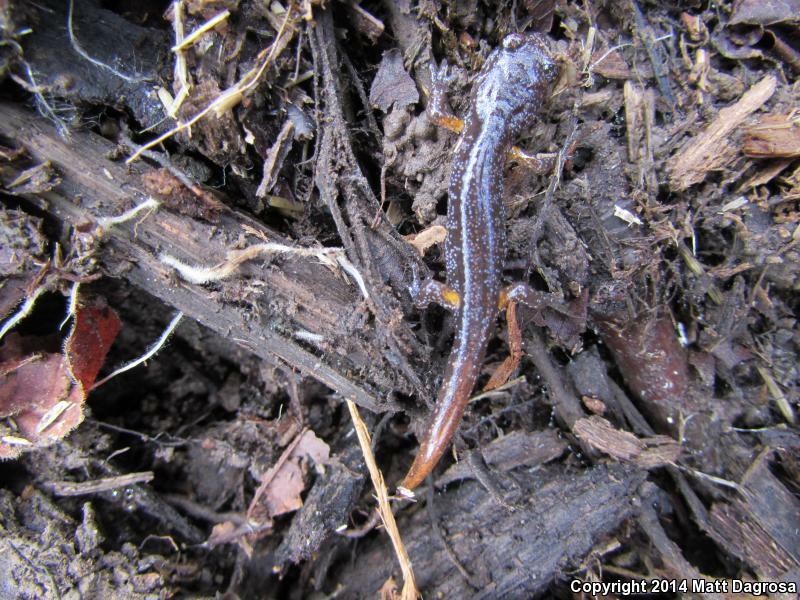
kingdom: Animalia
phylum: Chordata
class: Amphibia
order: Caudata
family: Plethodontidae
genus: Ensatina
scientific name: Ensatina eschscholtzii
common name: Ensatina
